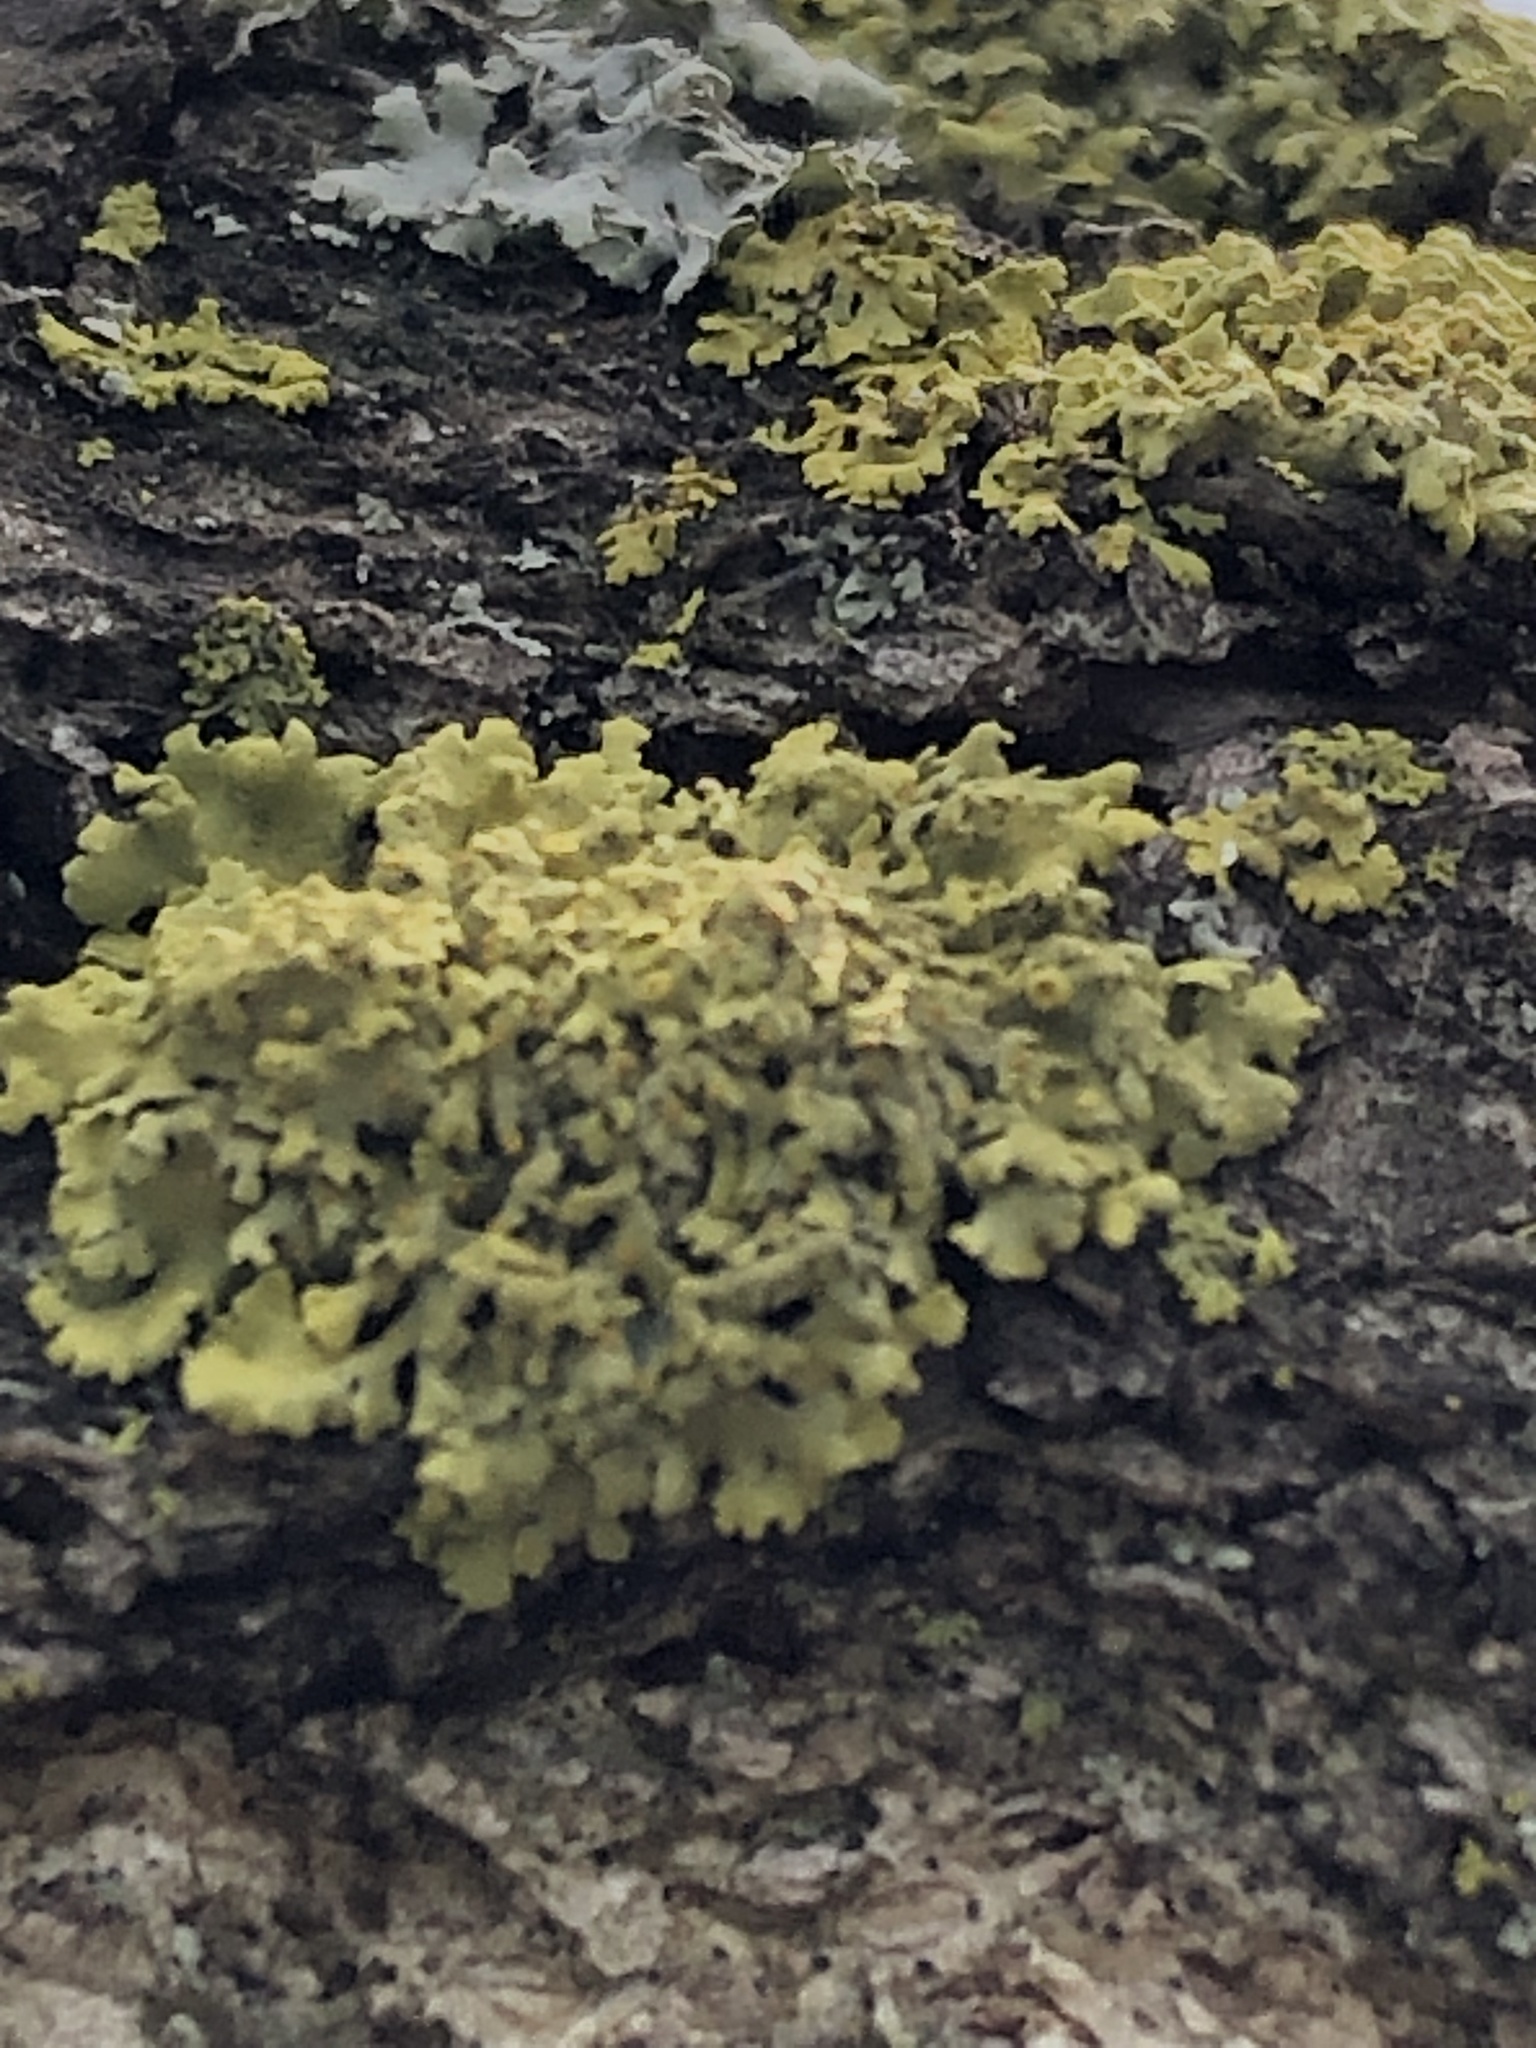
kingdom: Fungi
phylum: Ascomycota
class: Lecanoromycetes
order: Teloschistales
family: Teloschistaceae
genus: Gallowayella
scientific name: Gallowayella hasseana
